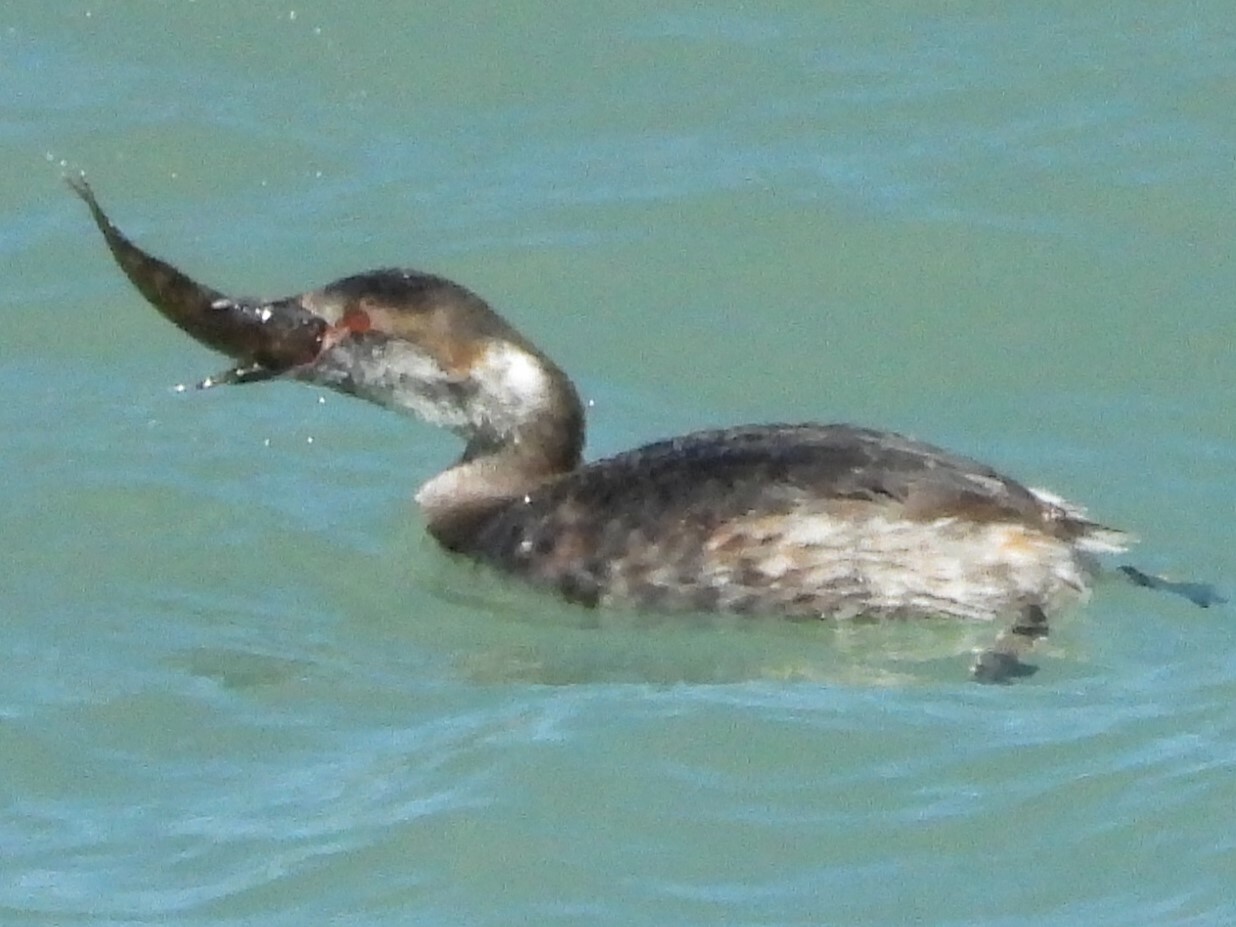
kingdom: Animalia
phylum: Chordata
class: Aves
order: Podicipediformes
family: Podicipedidae
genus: Podiceps
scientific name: Podiceps auritus
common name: Horned grebe
